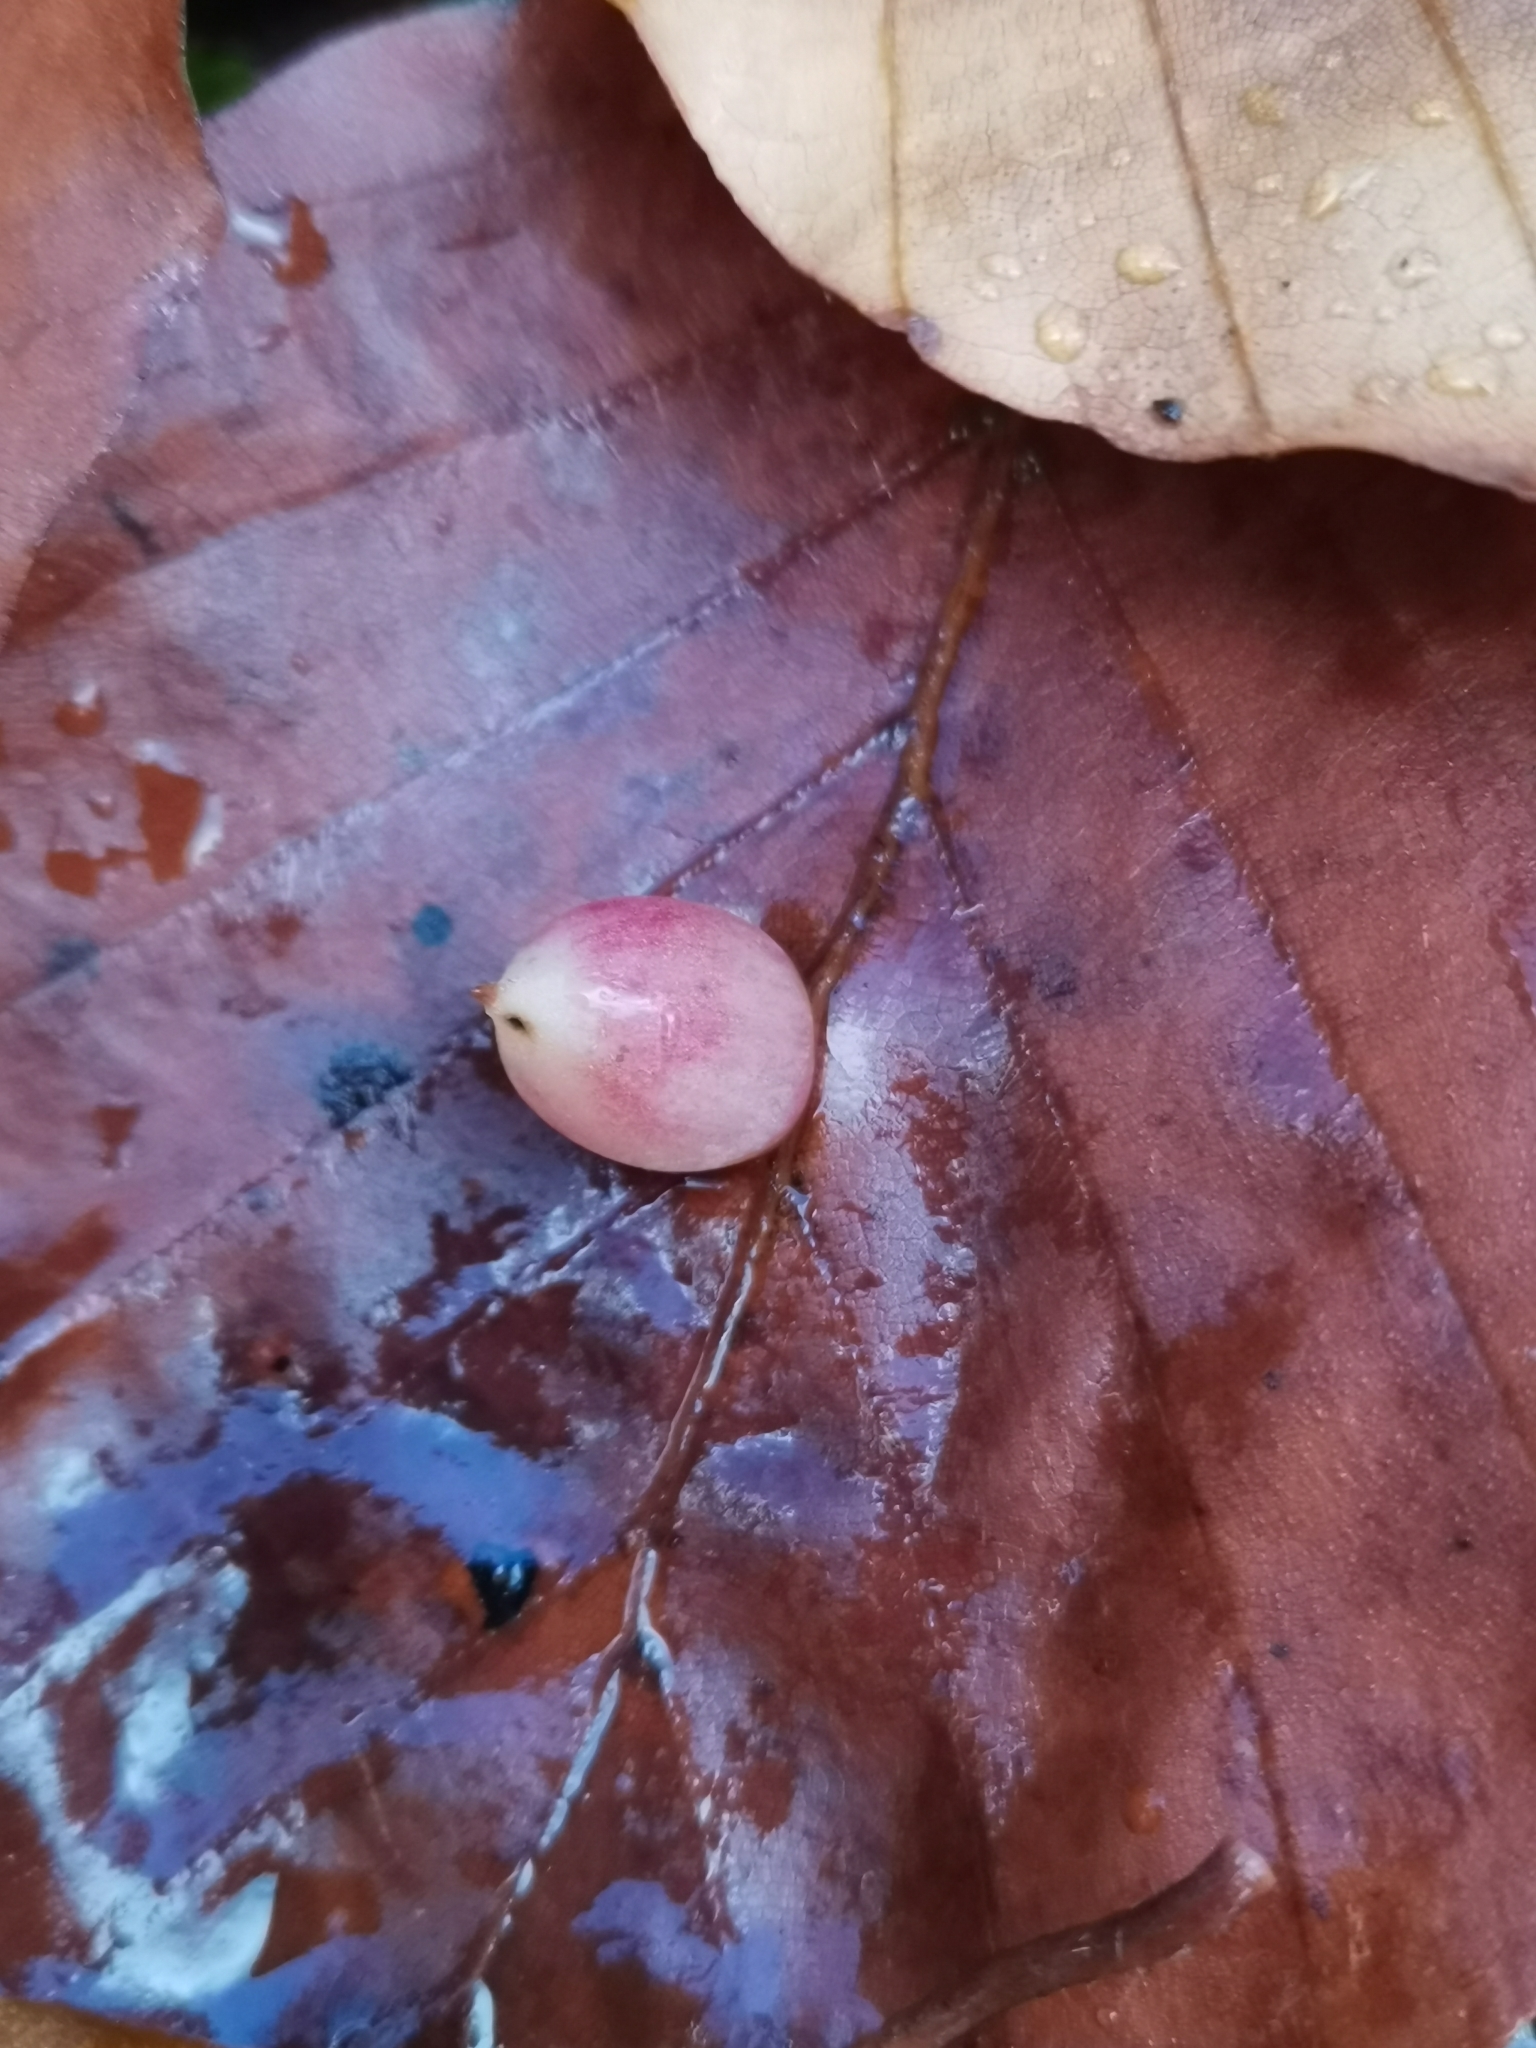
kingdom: Animalia
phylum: Arthropoda
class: Insecta
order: Diptera
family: Cecidomyiidae
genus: Mikiola
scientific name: Mikiola fagi
